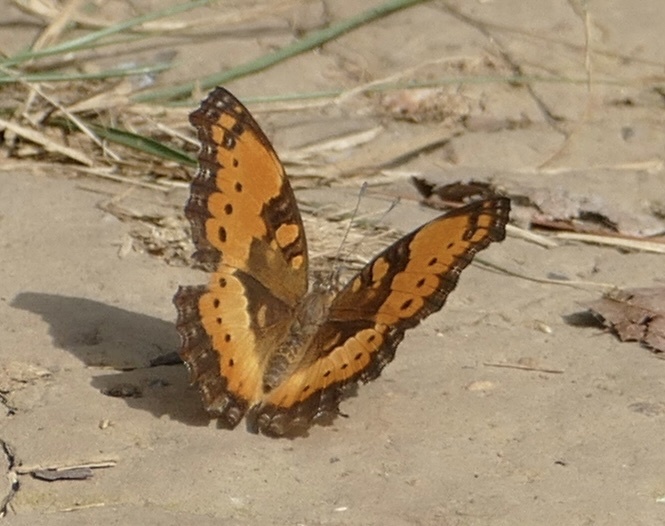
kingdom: Animalia
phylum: Arthropoda
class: Insecta
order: Lepidoptera
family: Nymphalidae
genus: Precis
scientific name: Precis octavia
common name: Gaudy commodore
